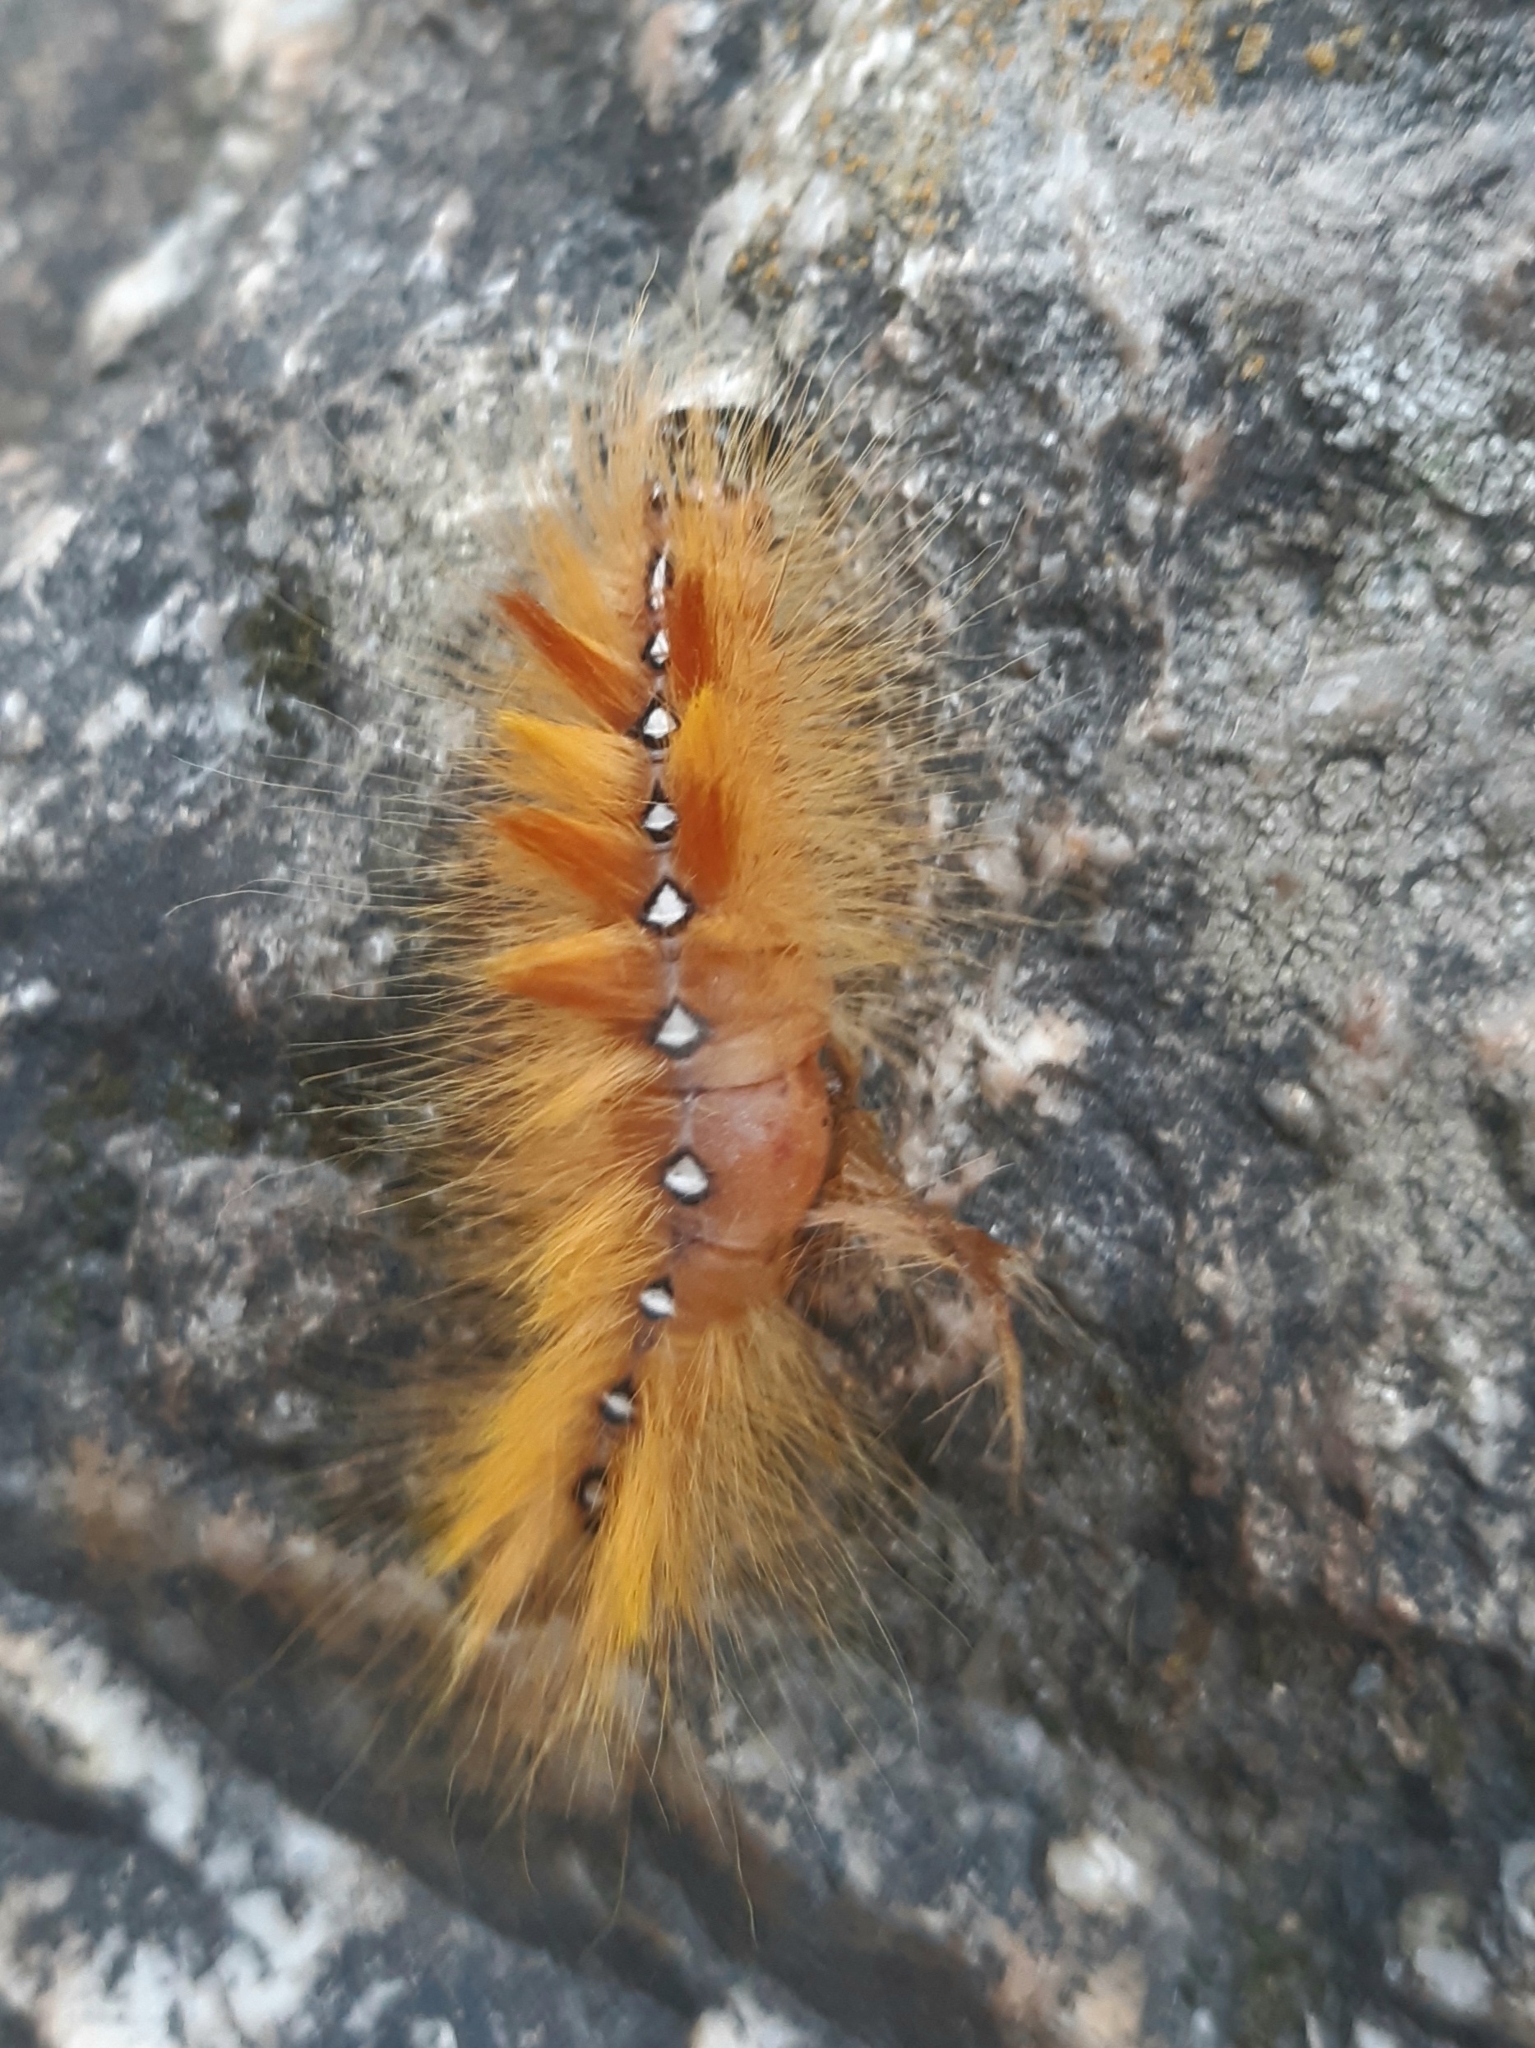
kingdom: Animalia
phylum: Arthropoda
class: Insecta
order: Lepidoptera
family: Noctuidae
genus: Acronicta
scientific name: Acronicta aceris
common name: Sycamore
